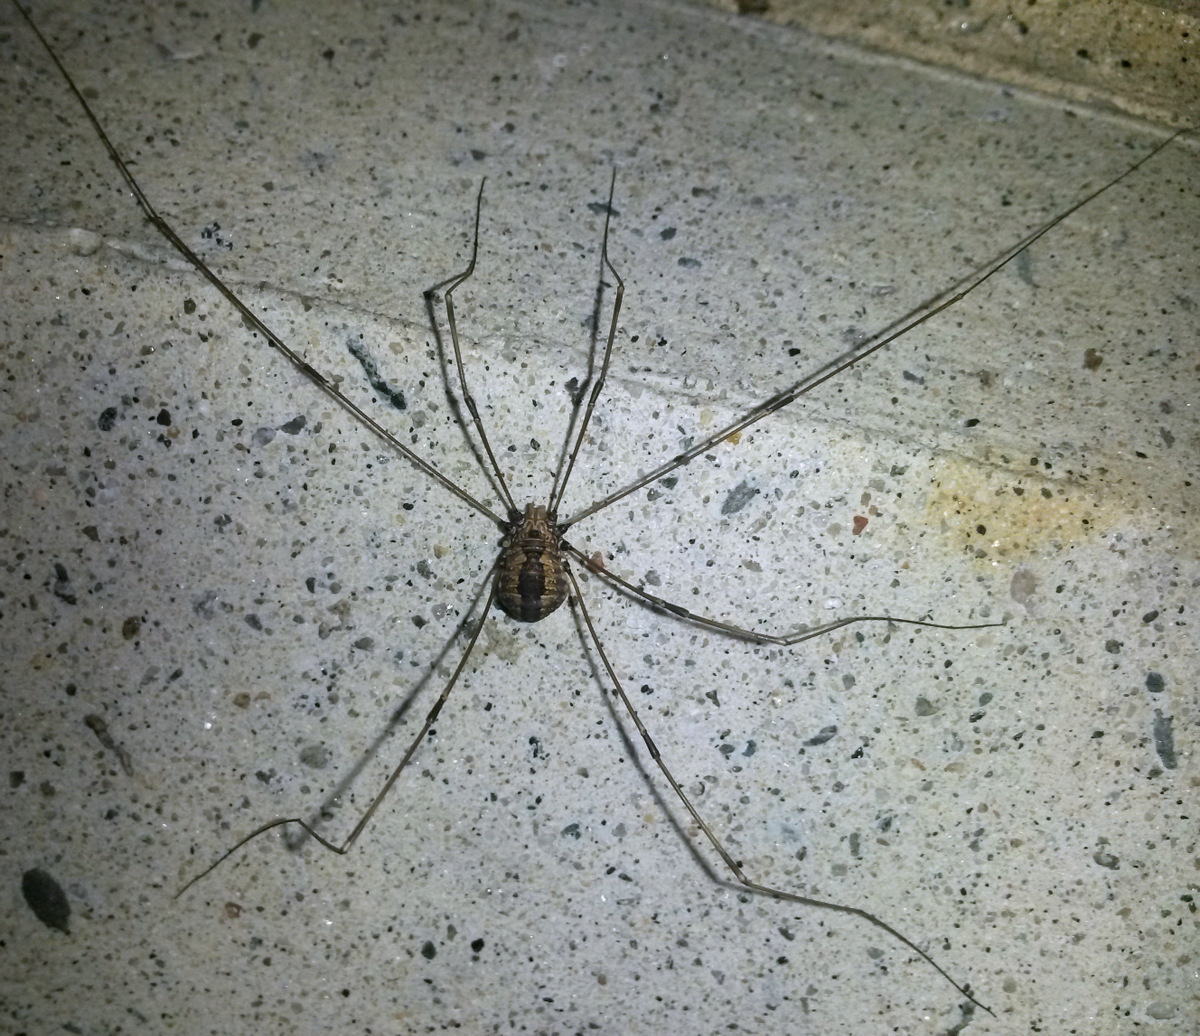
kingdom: Animalia
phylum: Arthropoda
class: Arachnida
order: Opiliones
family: Sclerosomatidae
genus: Leiobunum
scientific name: Leiobunum vittatum
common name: Eastern harvestman
